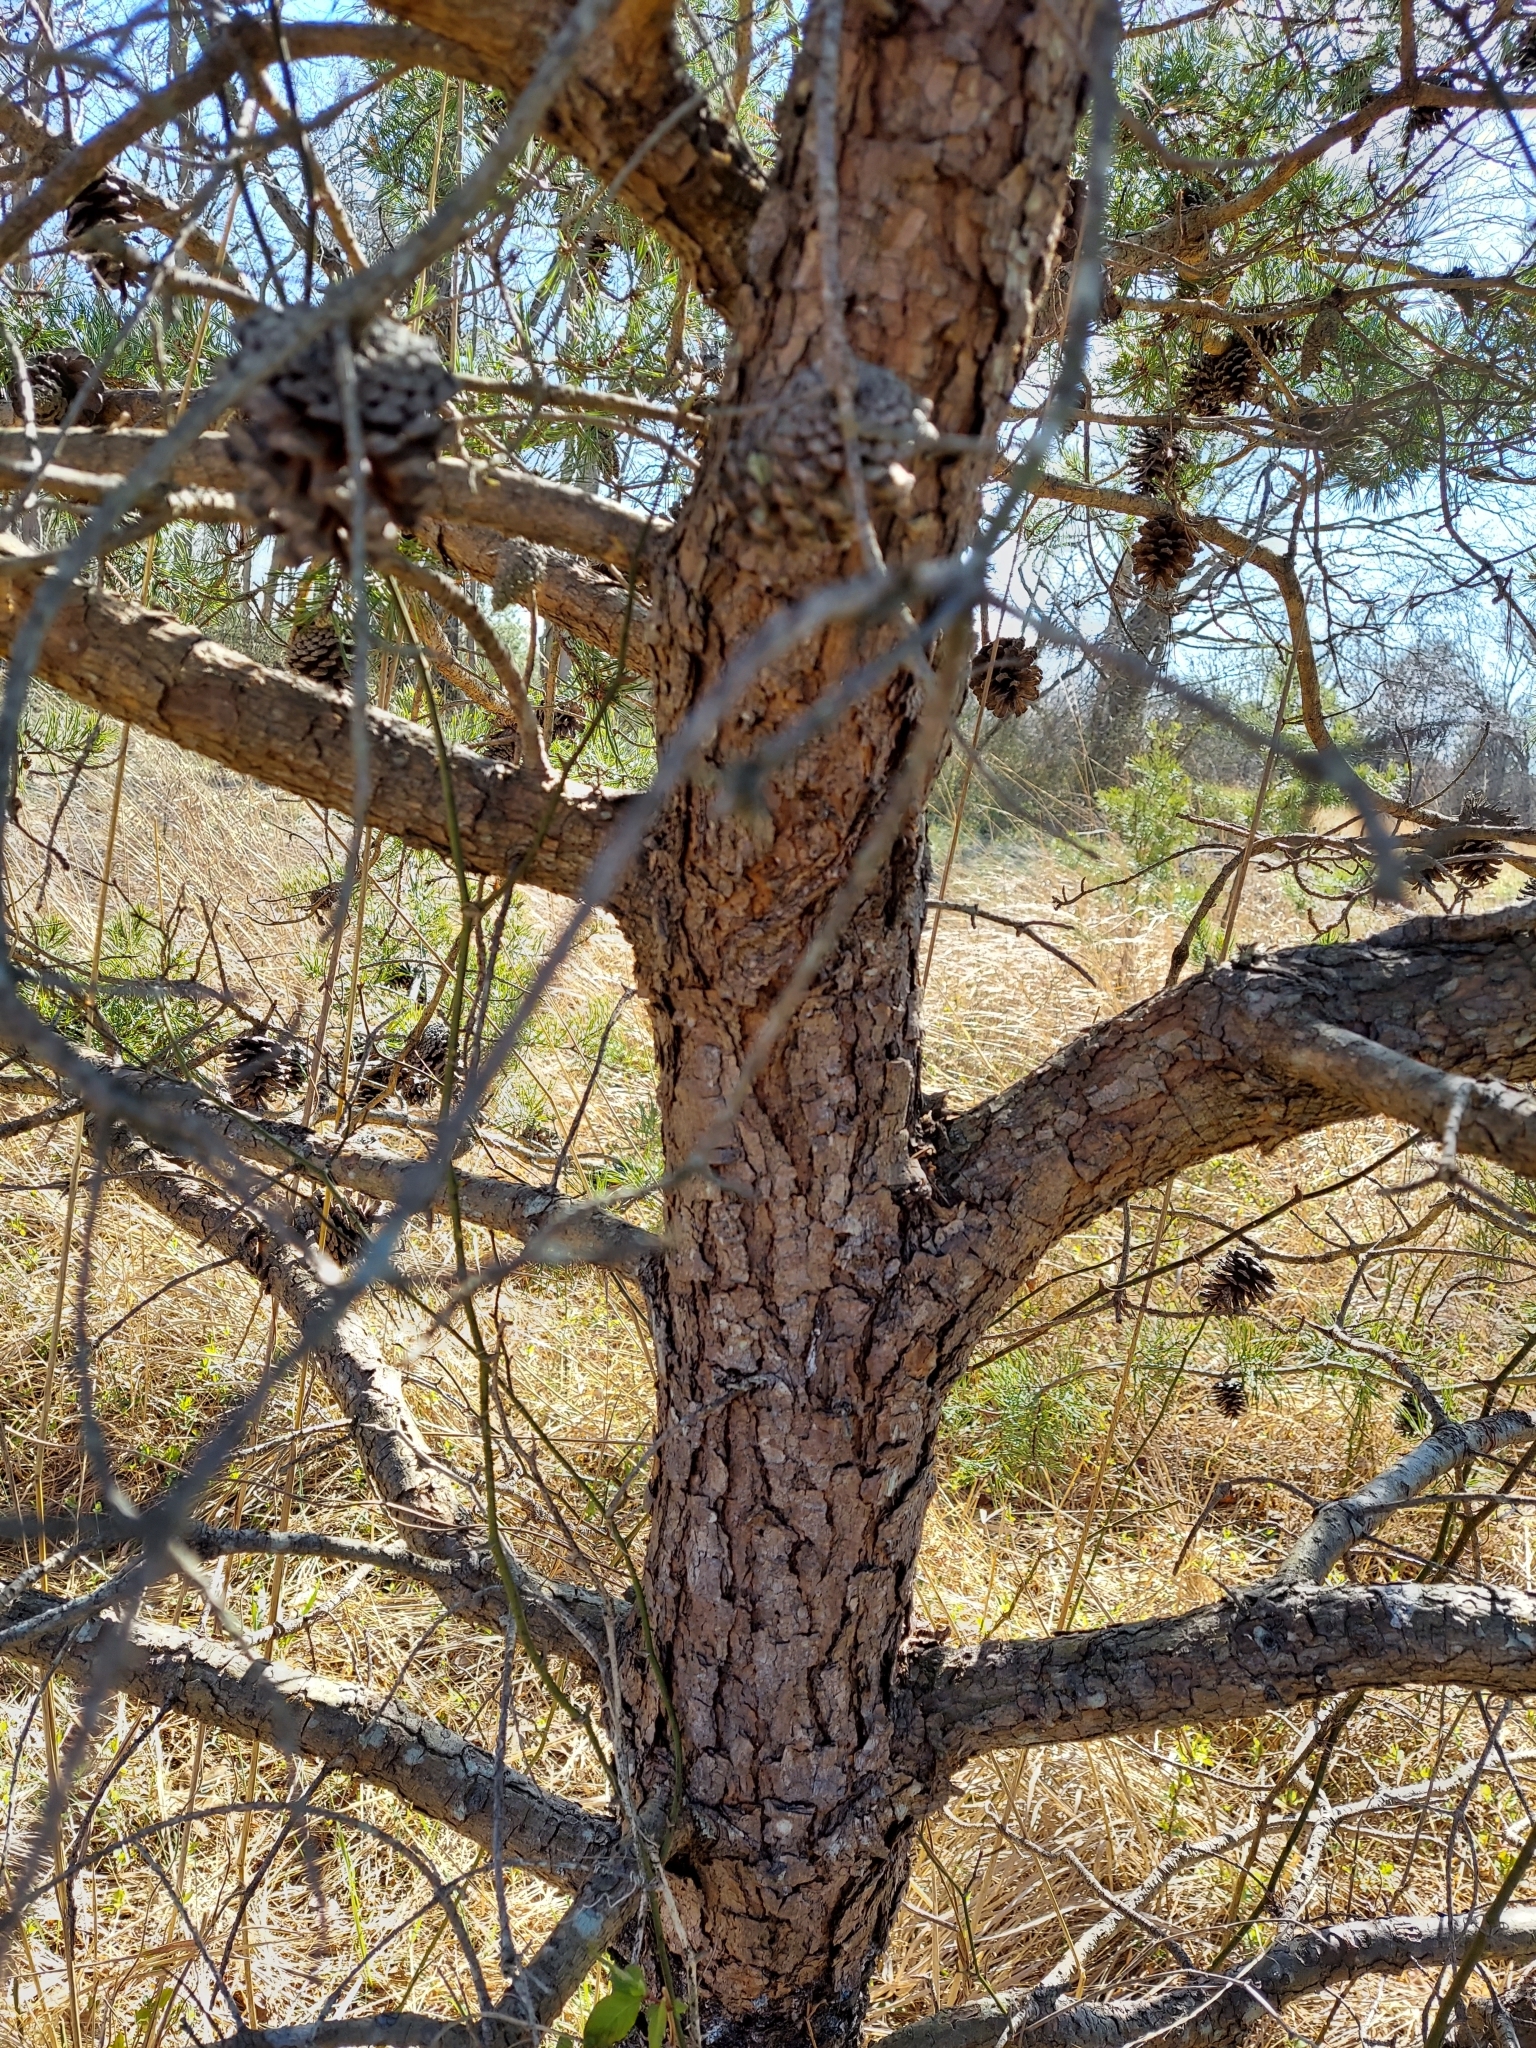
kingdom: Plantae
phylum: Tracheophyta
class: Pinopsida
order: Pinales
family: Pinaceae
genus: Pinus
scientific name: Pinus virginiana
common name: Scrub pine
